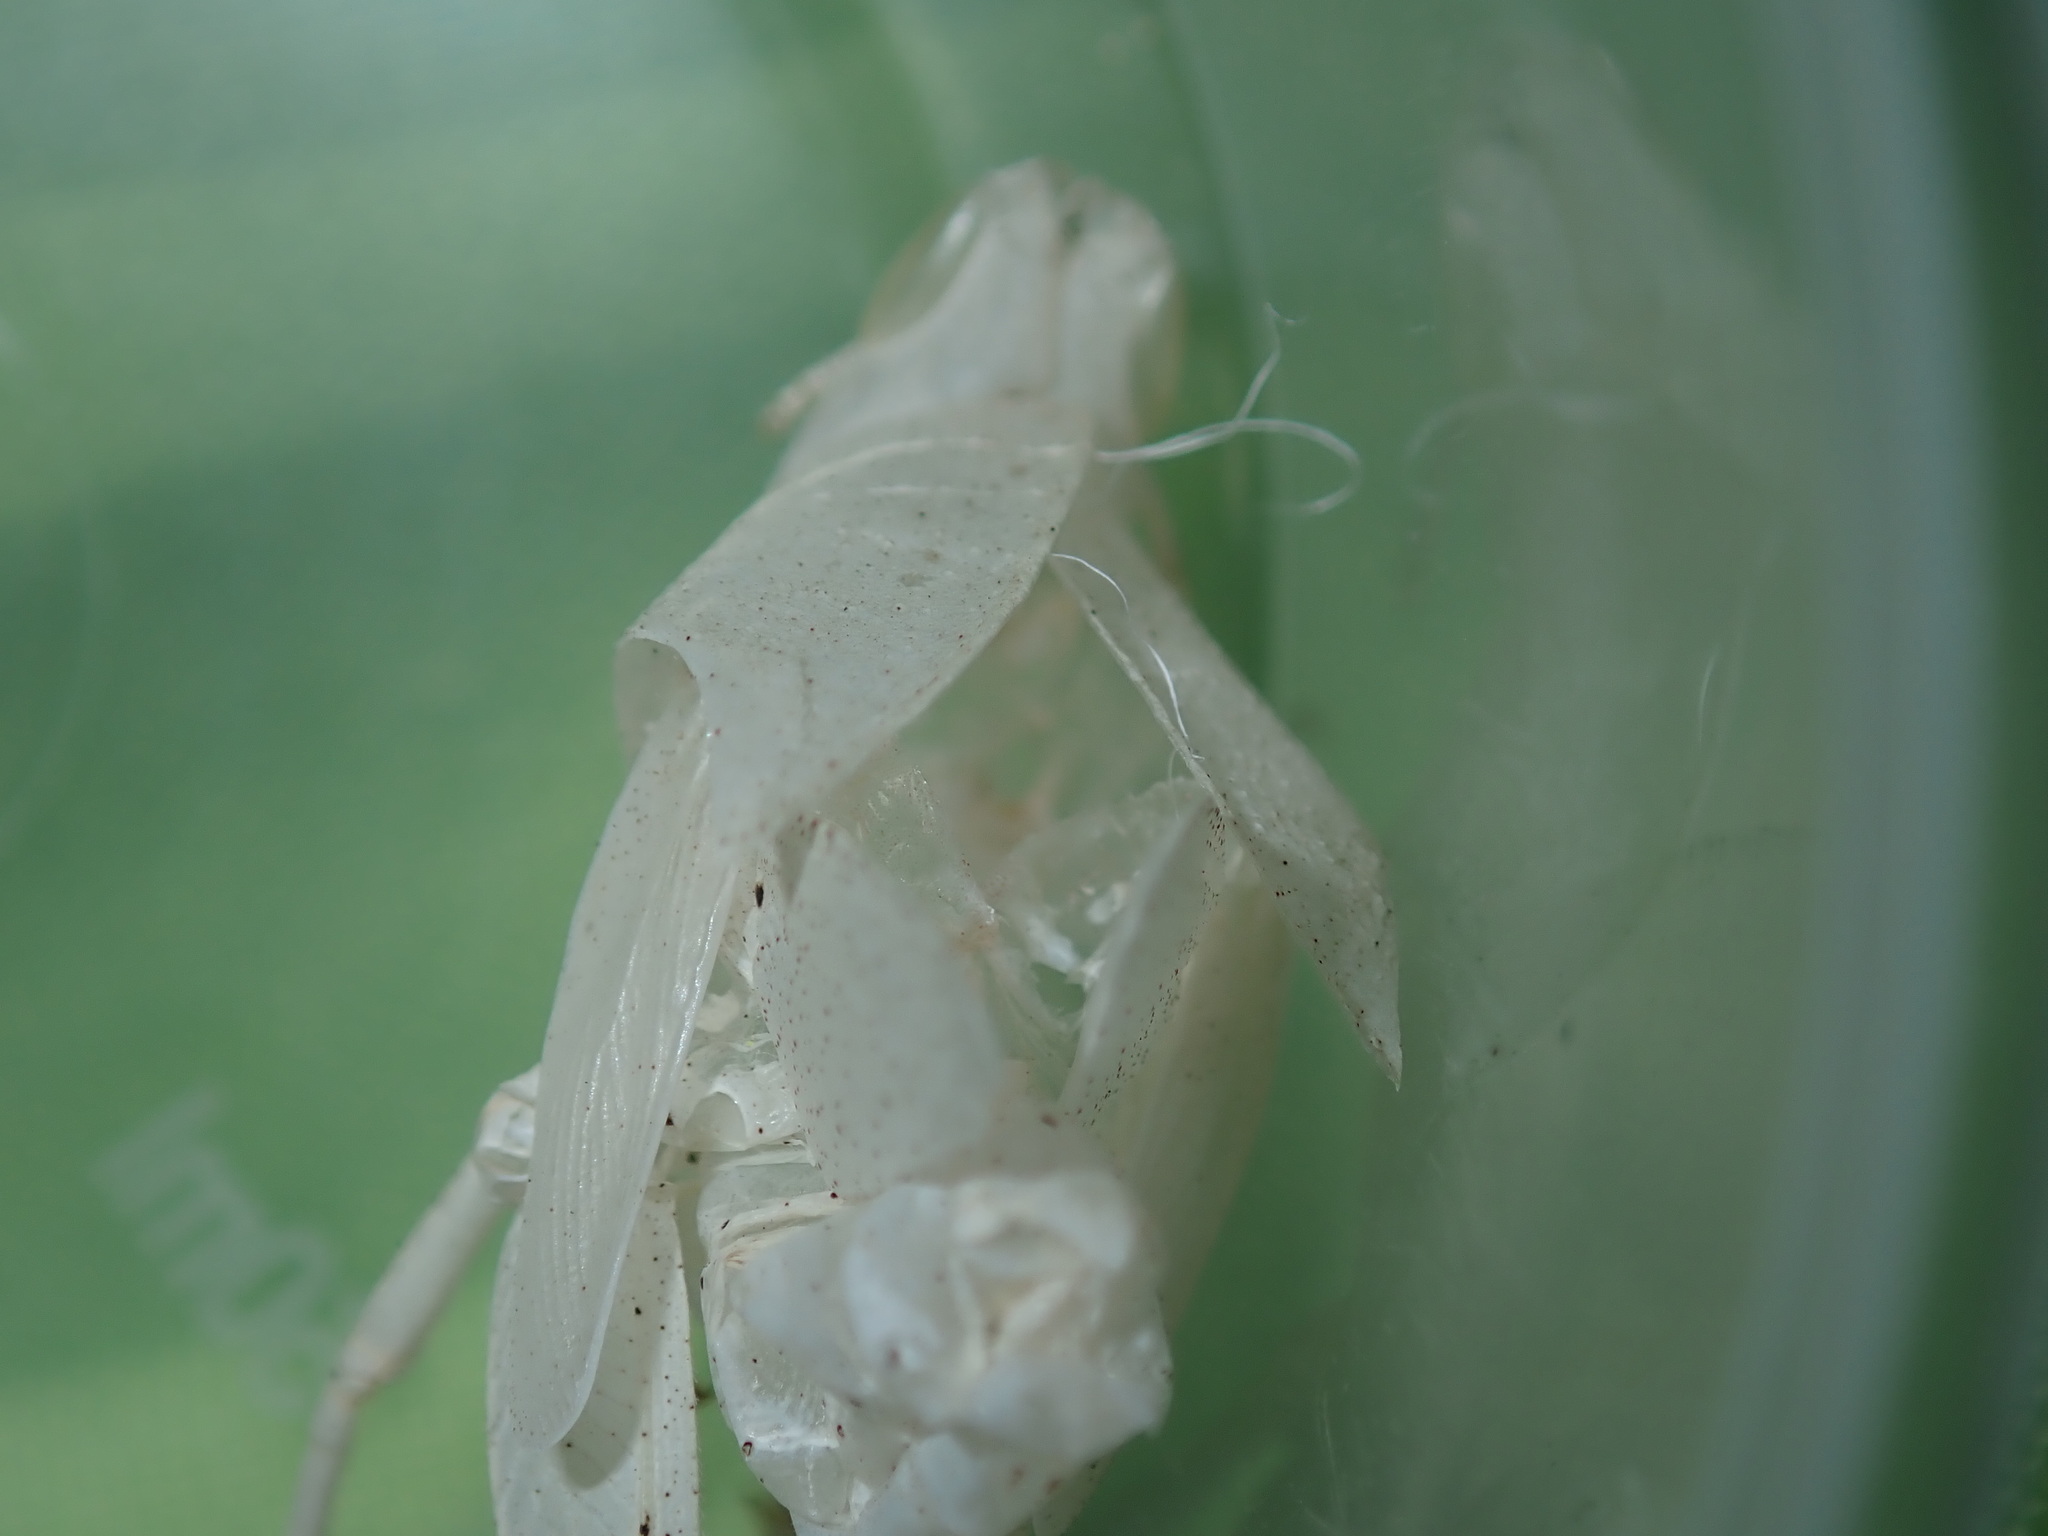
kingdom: Animalia
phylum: Arthropoda
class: Insecta
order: Orthoptera
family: Acrididae
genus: Goniaea
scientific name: Goniaea australasiae
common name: Gumleaf grasshopper
